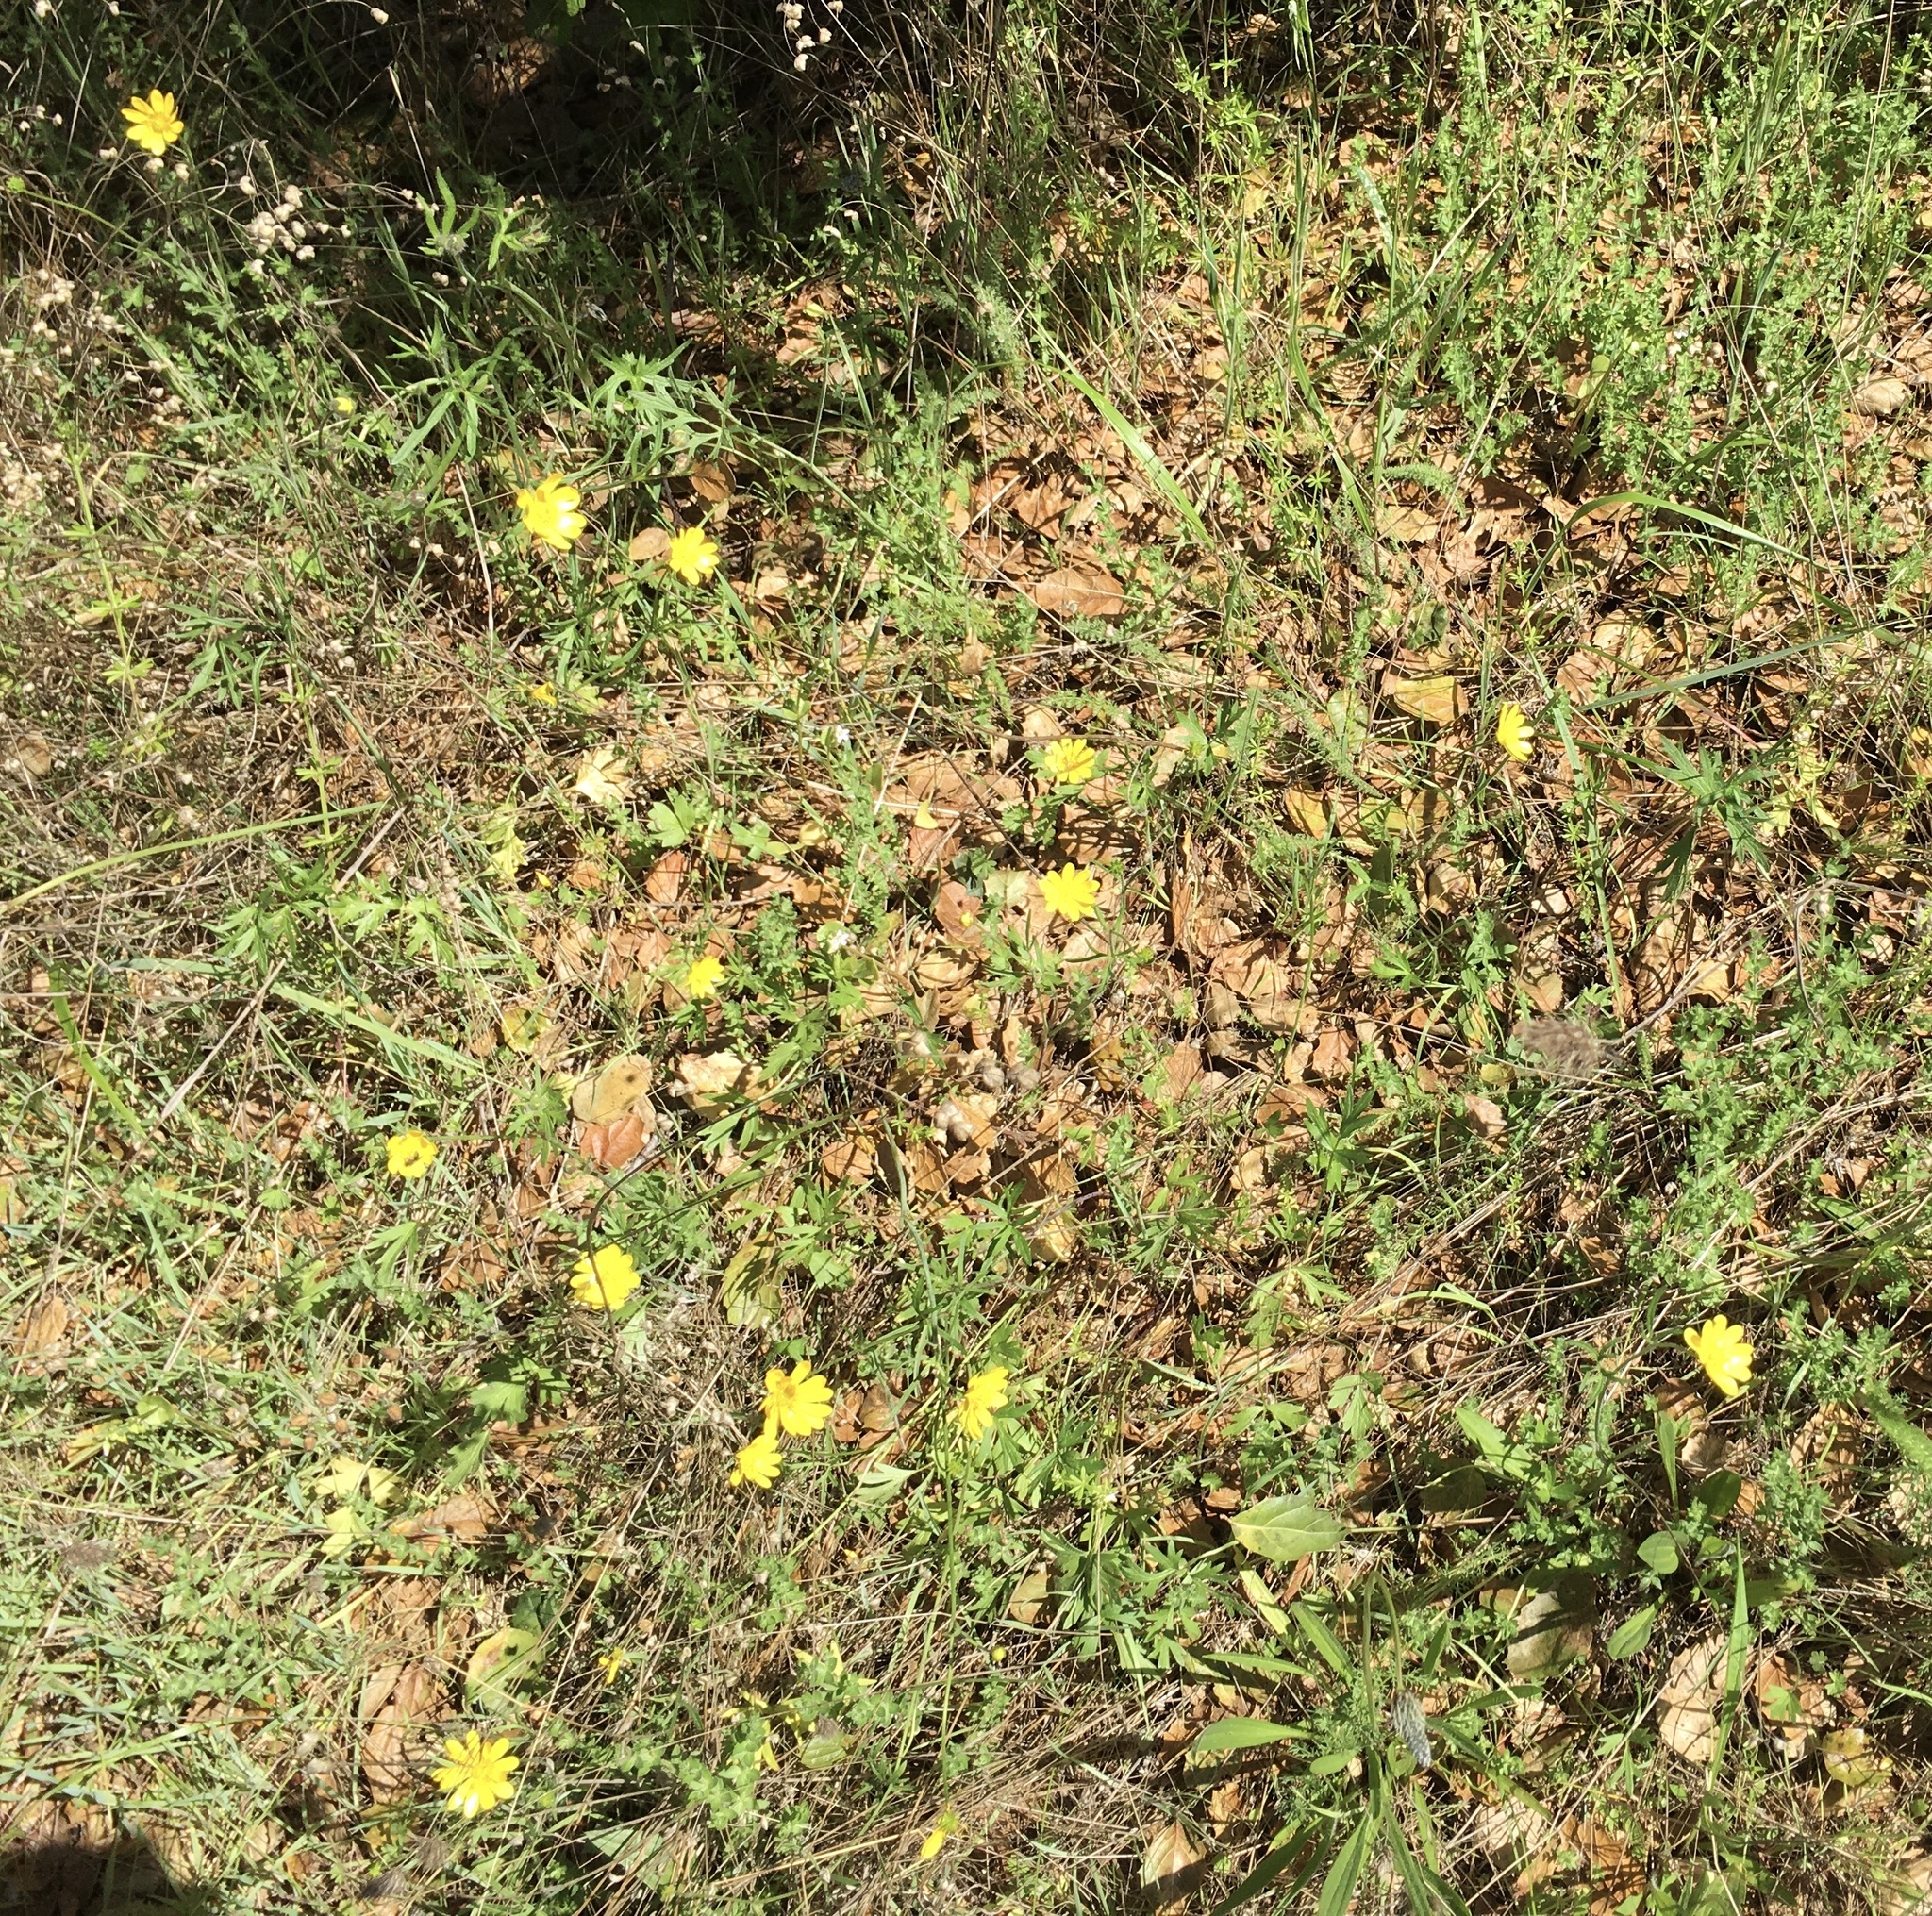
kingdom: Plantae
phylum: Tracheophyta
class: Magnoliopsida
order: Ranunculales
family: Ranunculaceae
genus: Ranunculus
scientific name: Ranunculus californicus
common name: California buttercup
